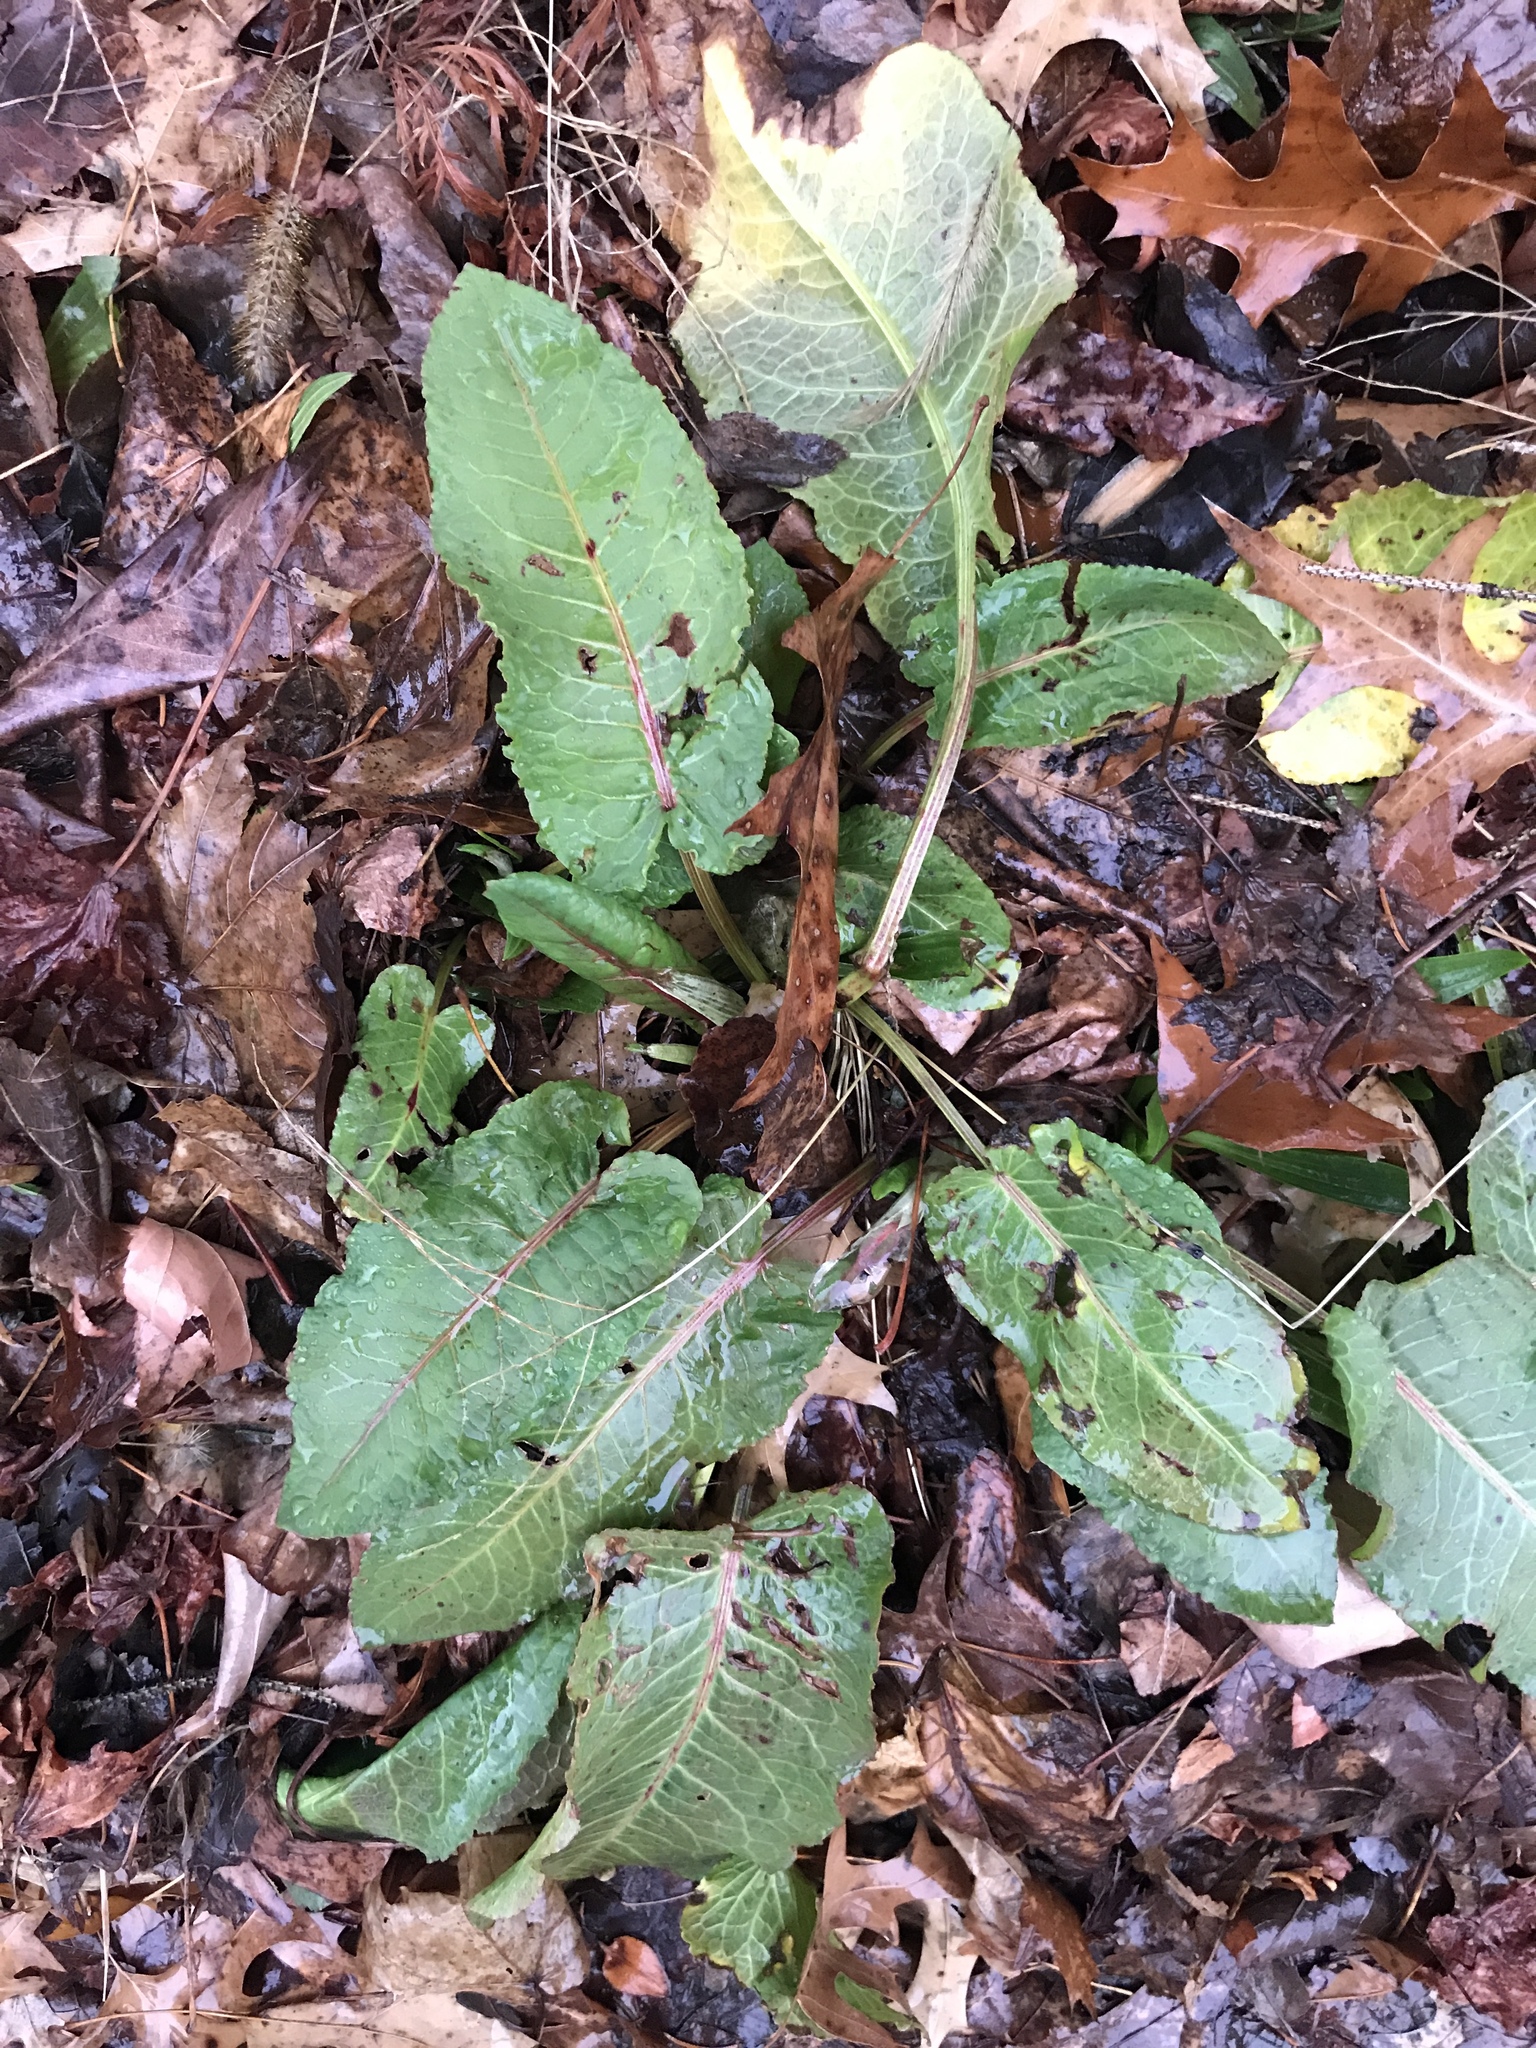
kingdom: Plantae
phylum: Tracheophyta
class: Magnoliopsida
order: Caryophyllales
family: Polygonaceae
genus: Rumex
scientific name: Rumex obtusifolius
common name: Bitter dock
